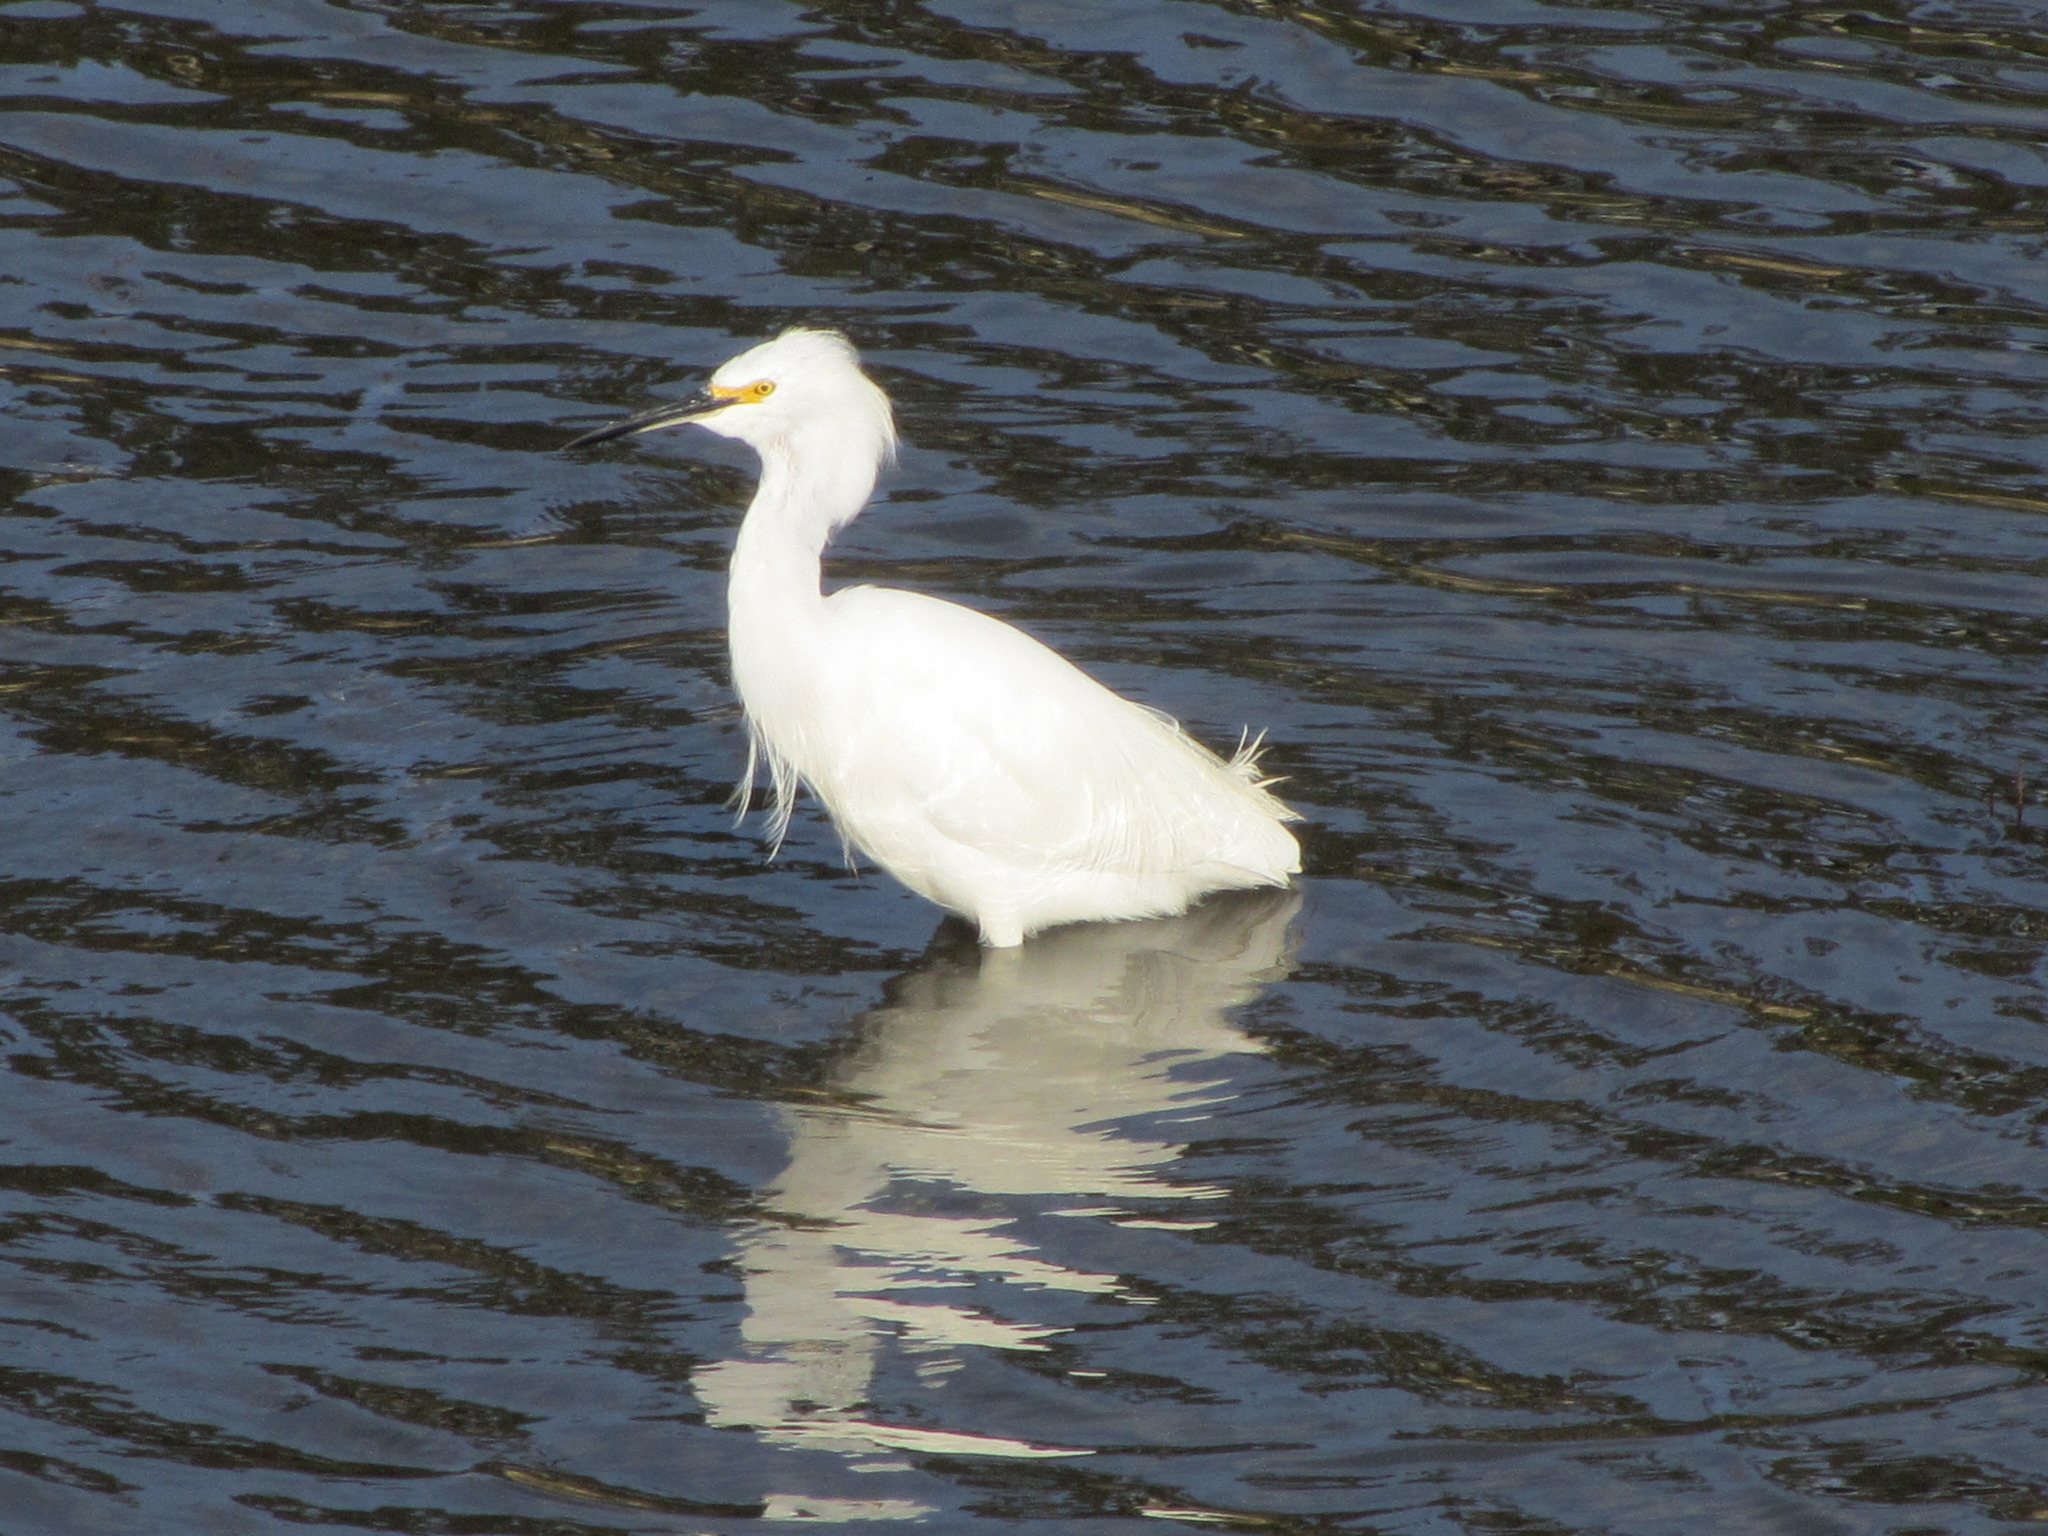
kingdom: Animalia
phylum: Chordata
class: Aves
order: Pelecaniformes
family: Ardeidae
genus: Egretta
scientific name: Egretta thula
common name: Snowy egret
